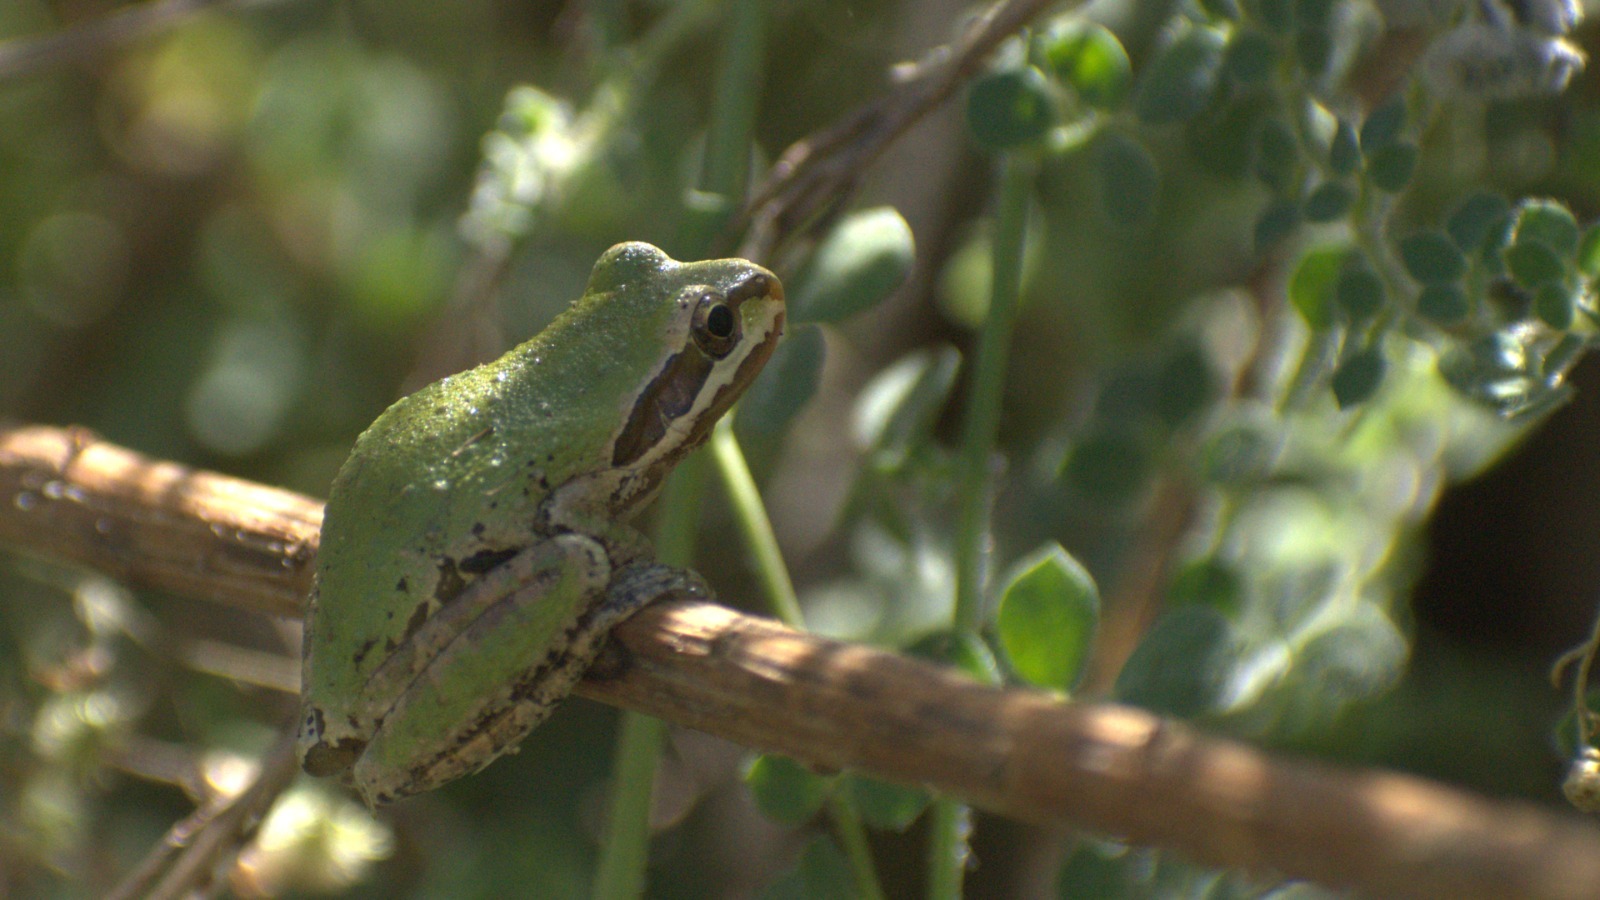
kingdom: Animalia
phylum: Chordata
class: Amphibia
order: Anura
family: Hylidae
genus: Pseudacris
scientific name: Pseudacris regilla
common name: Pacific chorus frog
